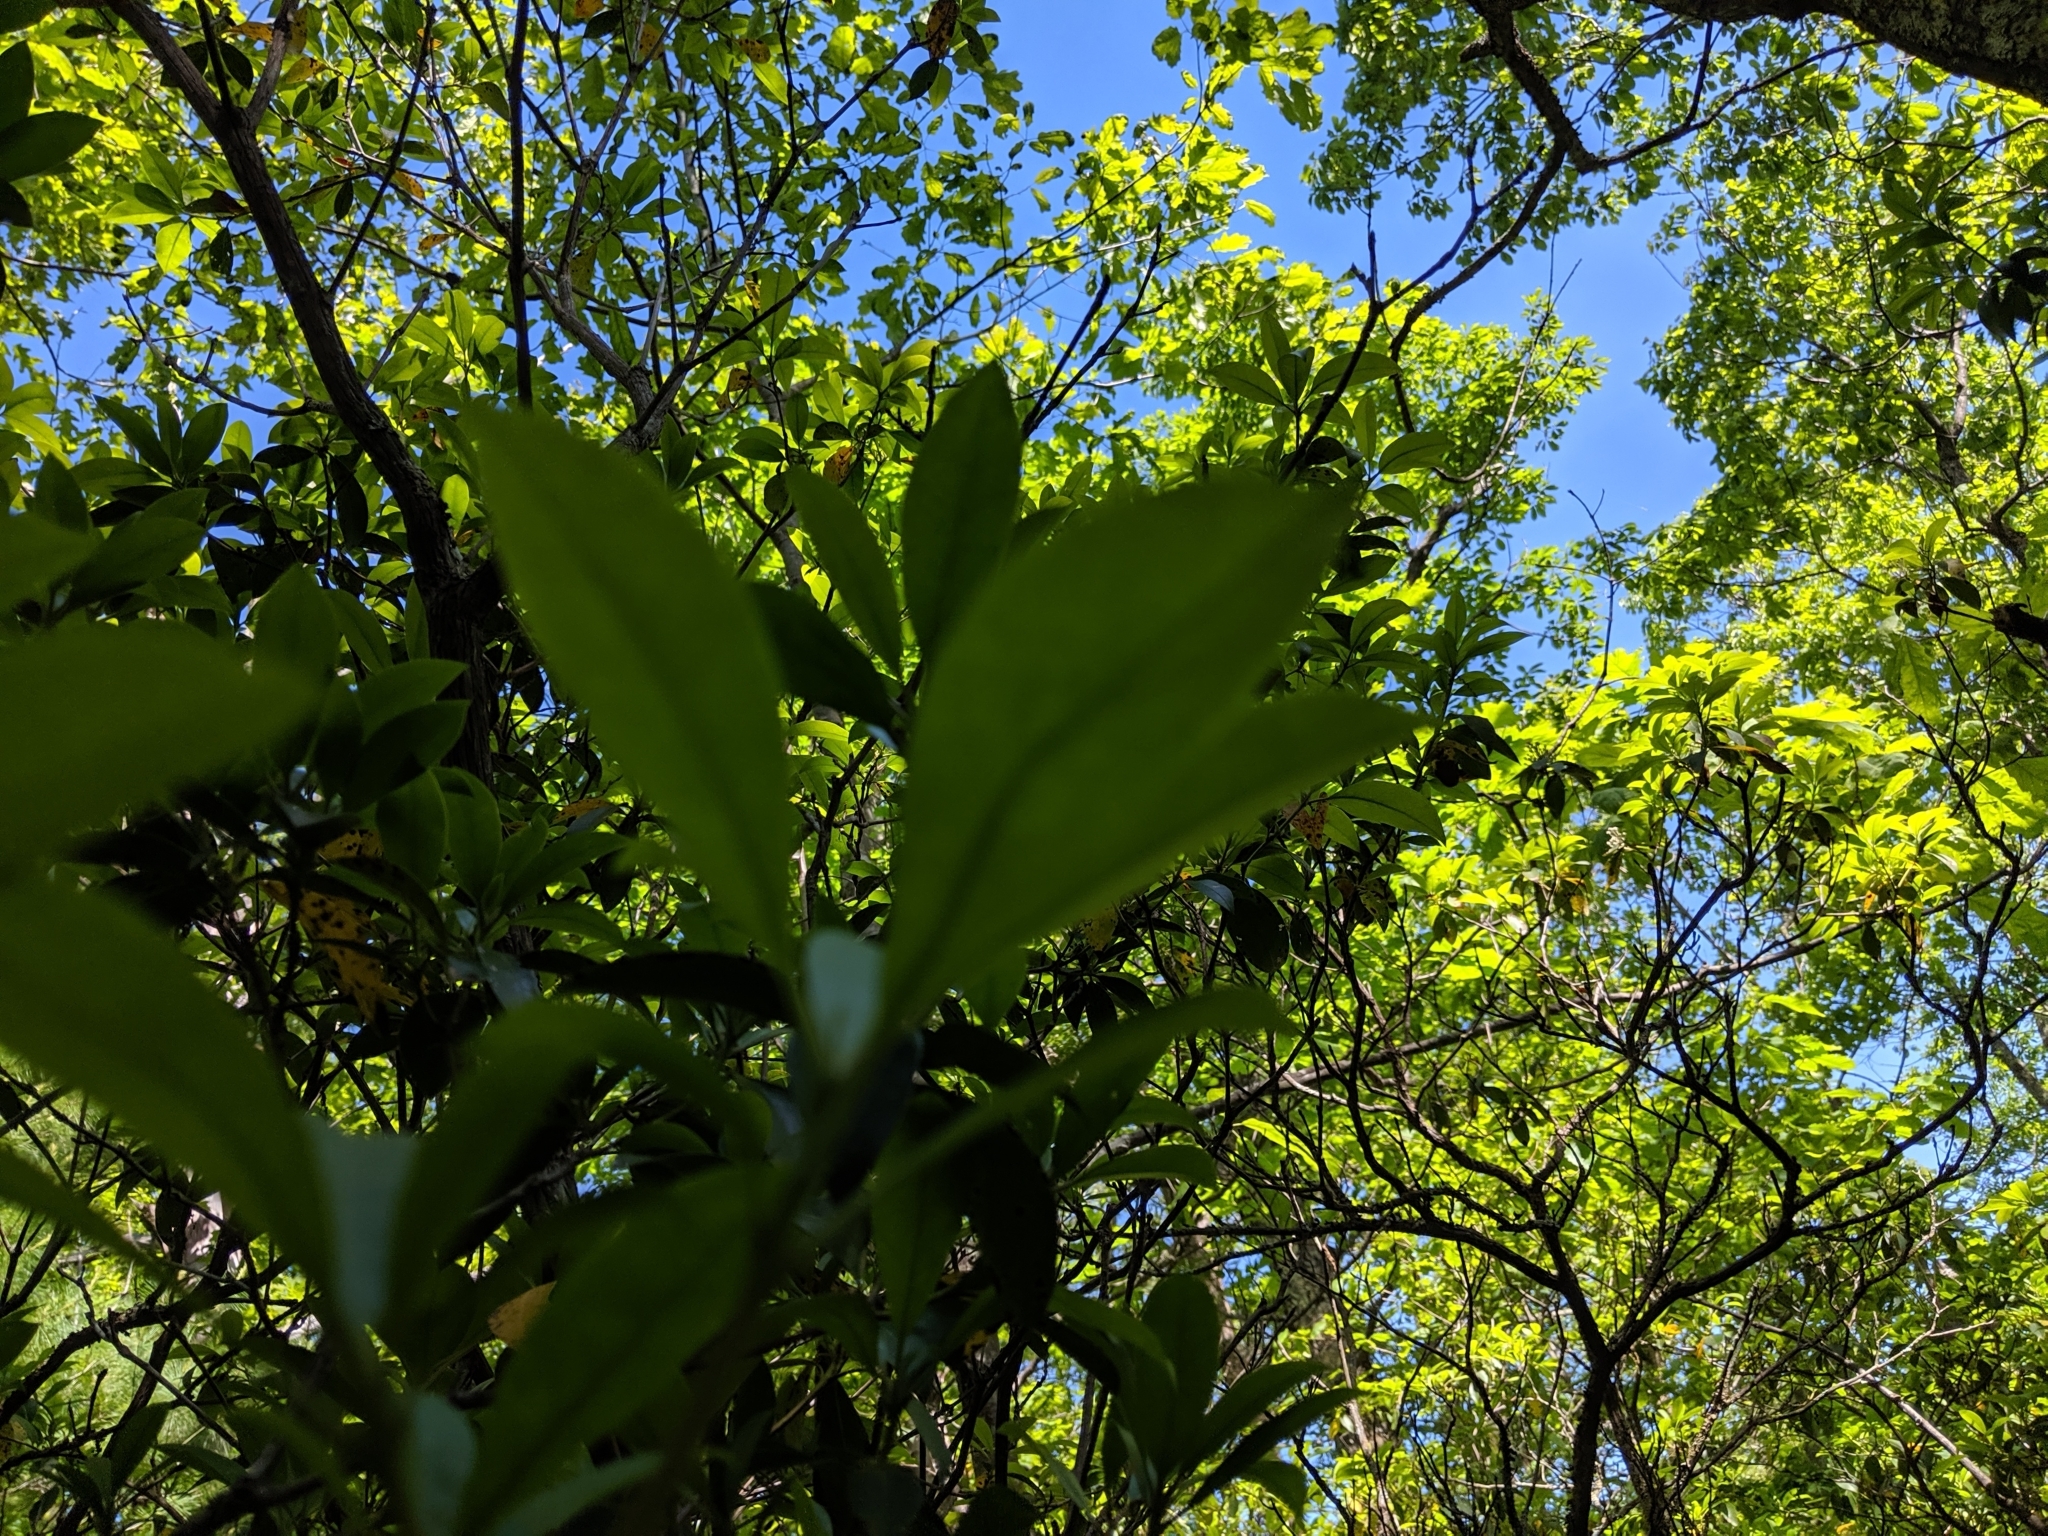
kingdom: Plantae
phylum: Tracheophyta
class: Magnoliopsida
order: Ericales
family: Ericaceae
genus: Kalmia
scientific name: Kalmia latifolia
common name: Mountain-laurel
